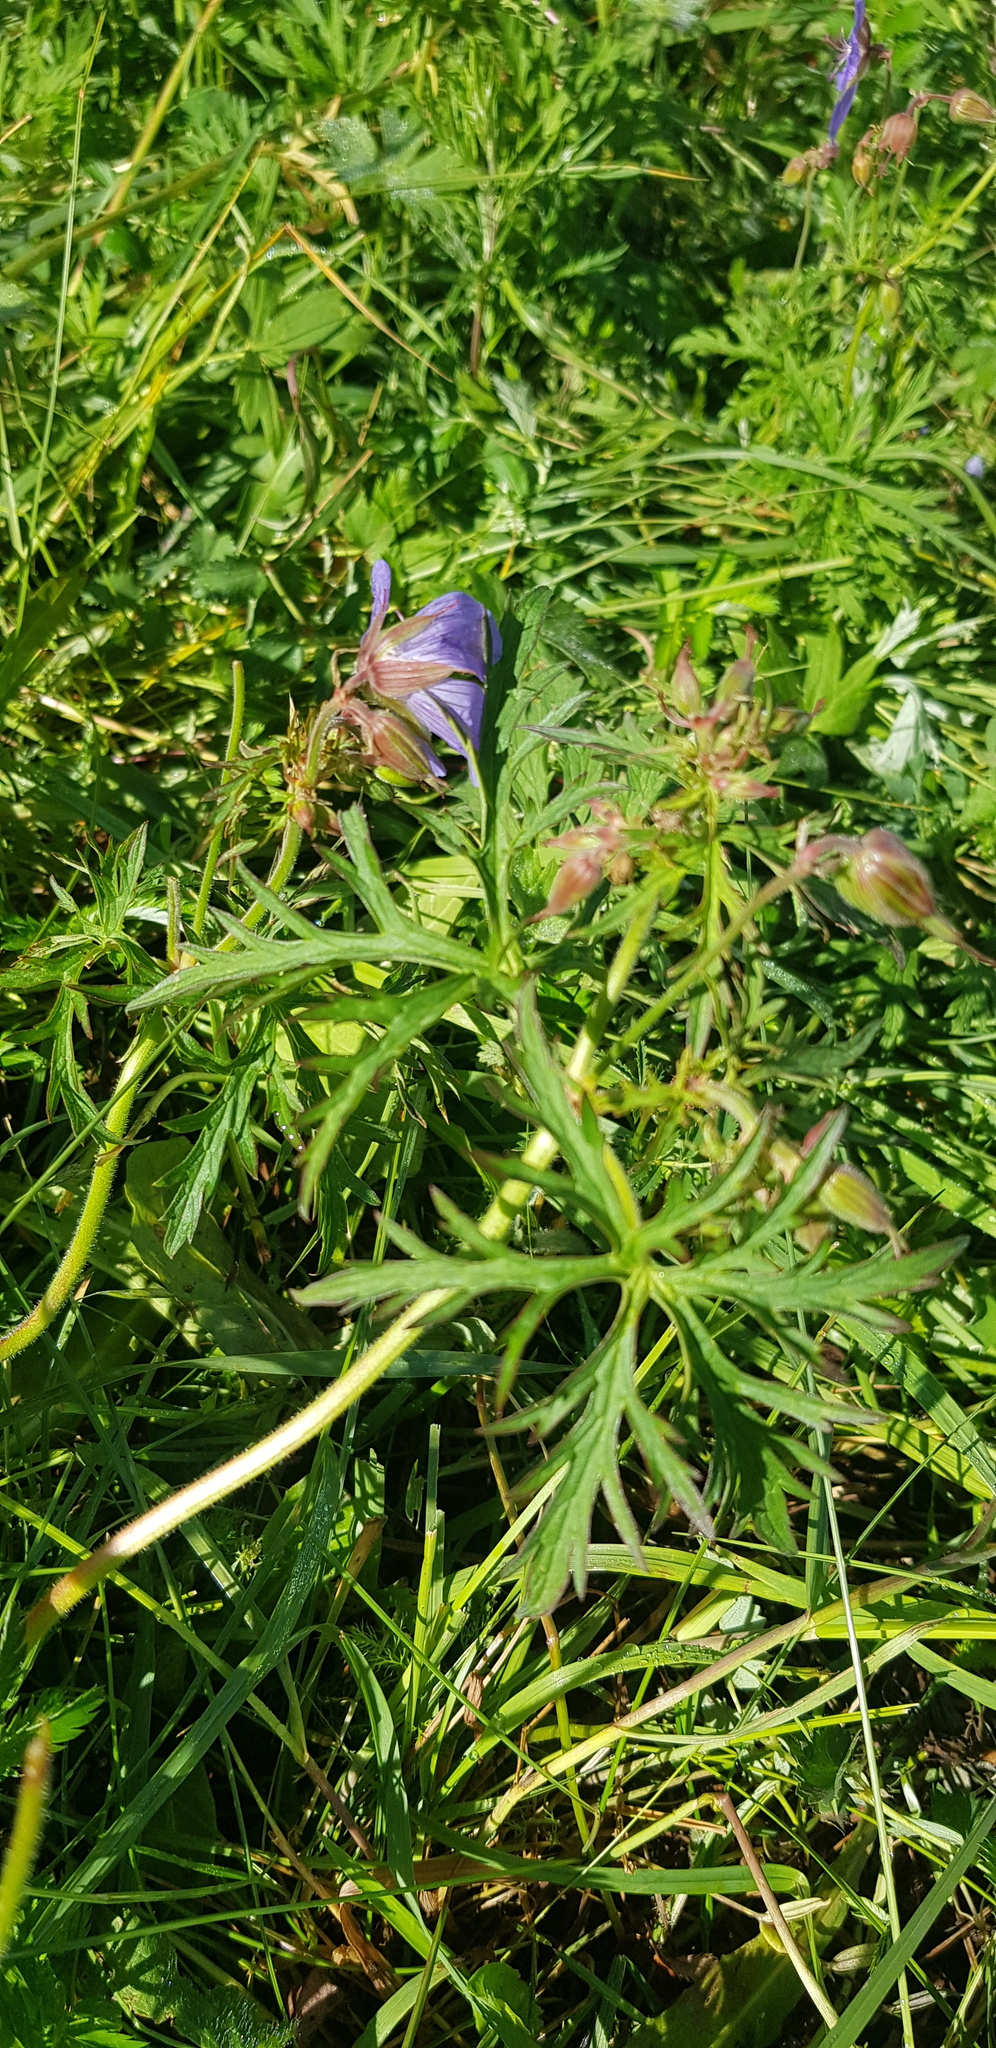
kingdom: Plantae
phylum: Tracheophyta
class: Magnoliopsida
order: Geraniales
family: Geraniaceae
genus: Geranium
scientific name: Geranium pratense
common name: Meadow crane's-bill
